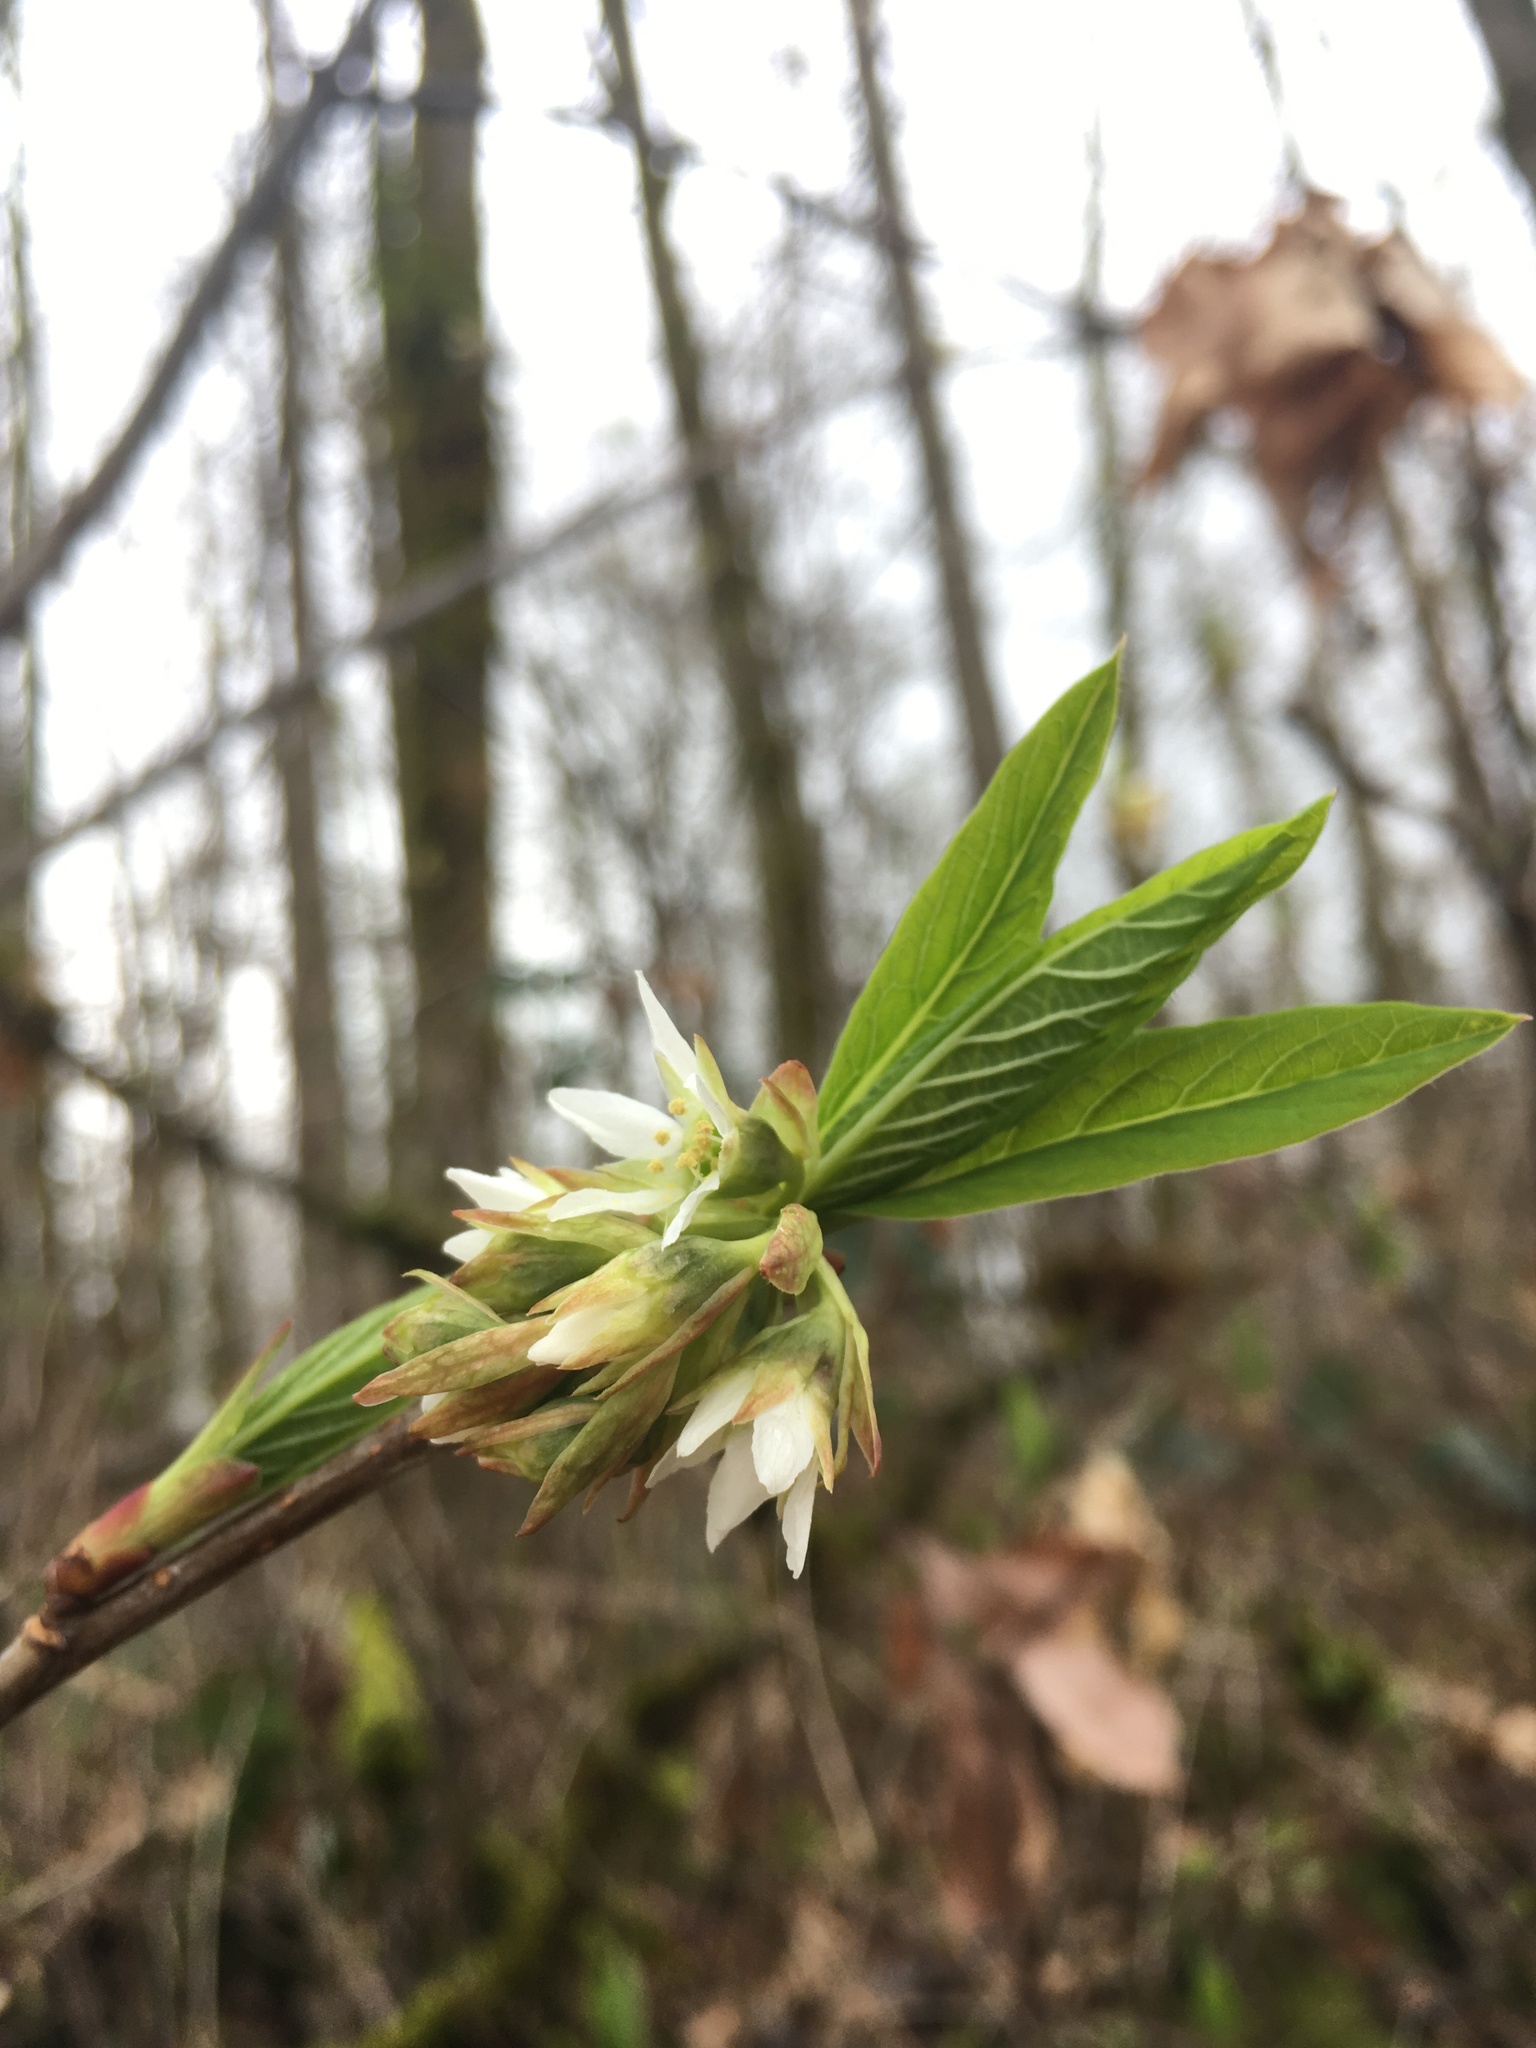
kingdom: Plantae
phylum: Tracheophyta
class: Magnoliopsida
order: Rosales
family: Rosaceae
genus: Oemleria
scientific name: Oemleria cerasiformis
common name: Osoberry
